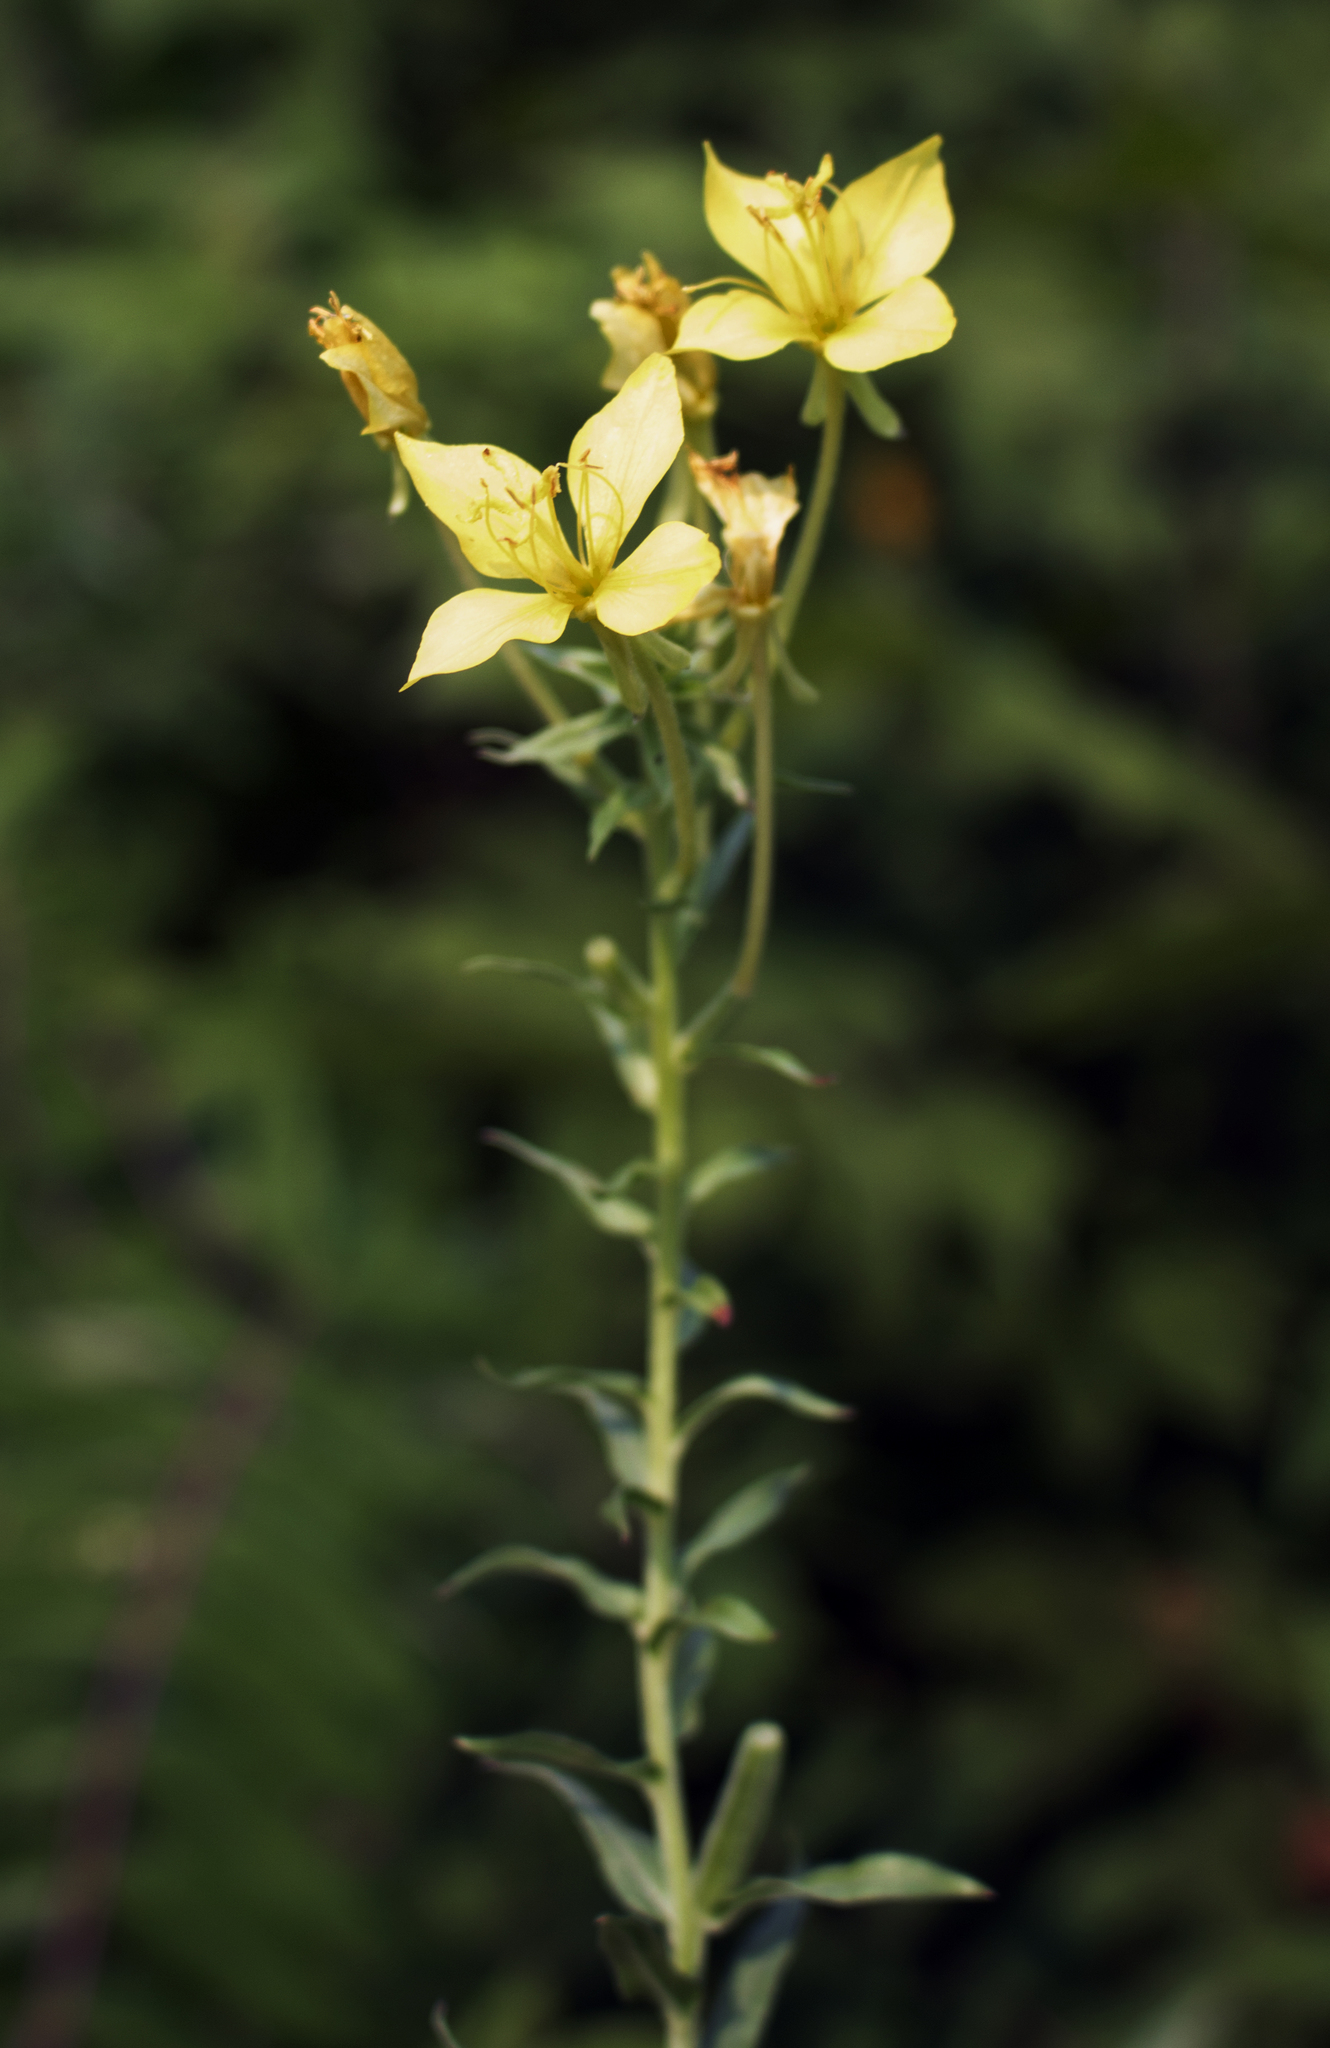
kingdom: Plantae
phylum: Tracheophyta
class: Magnoliopsida
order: Myrtales
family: Onagraceae
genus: Oenothera
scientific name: Oenothera clelandii
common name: Cleland's evening-primrose
